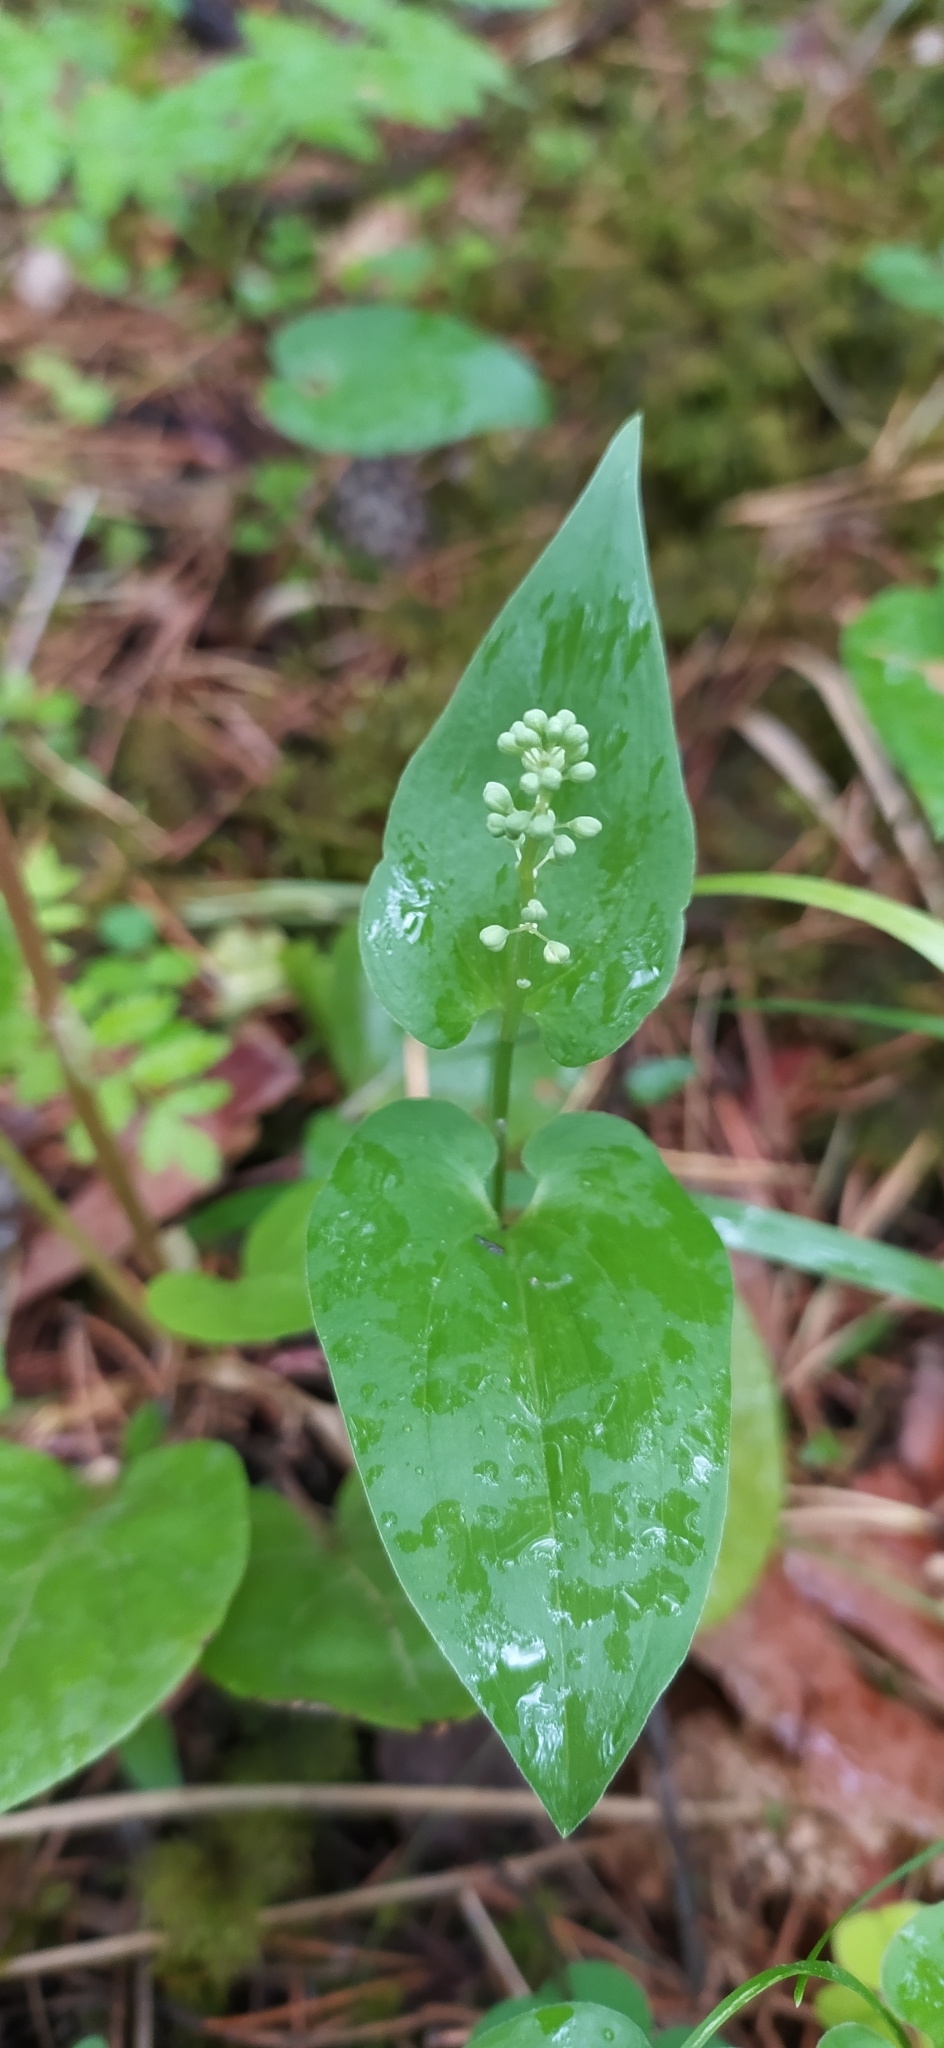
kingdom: Plantae
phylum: Tracheophyta
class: Liliopsida
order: Asparagales
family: Asparagaceae
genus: Maianthemum
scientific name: Maianthemum bifolium
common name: May lily
